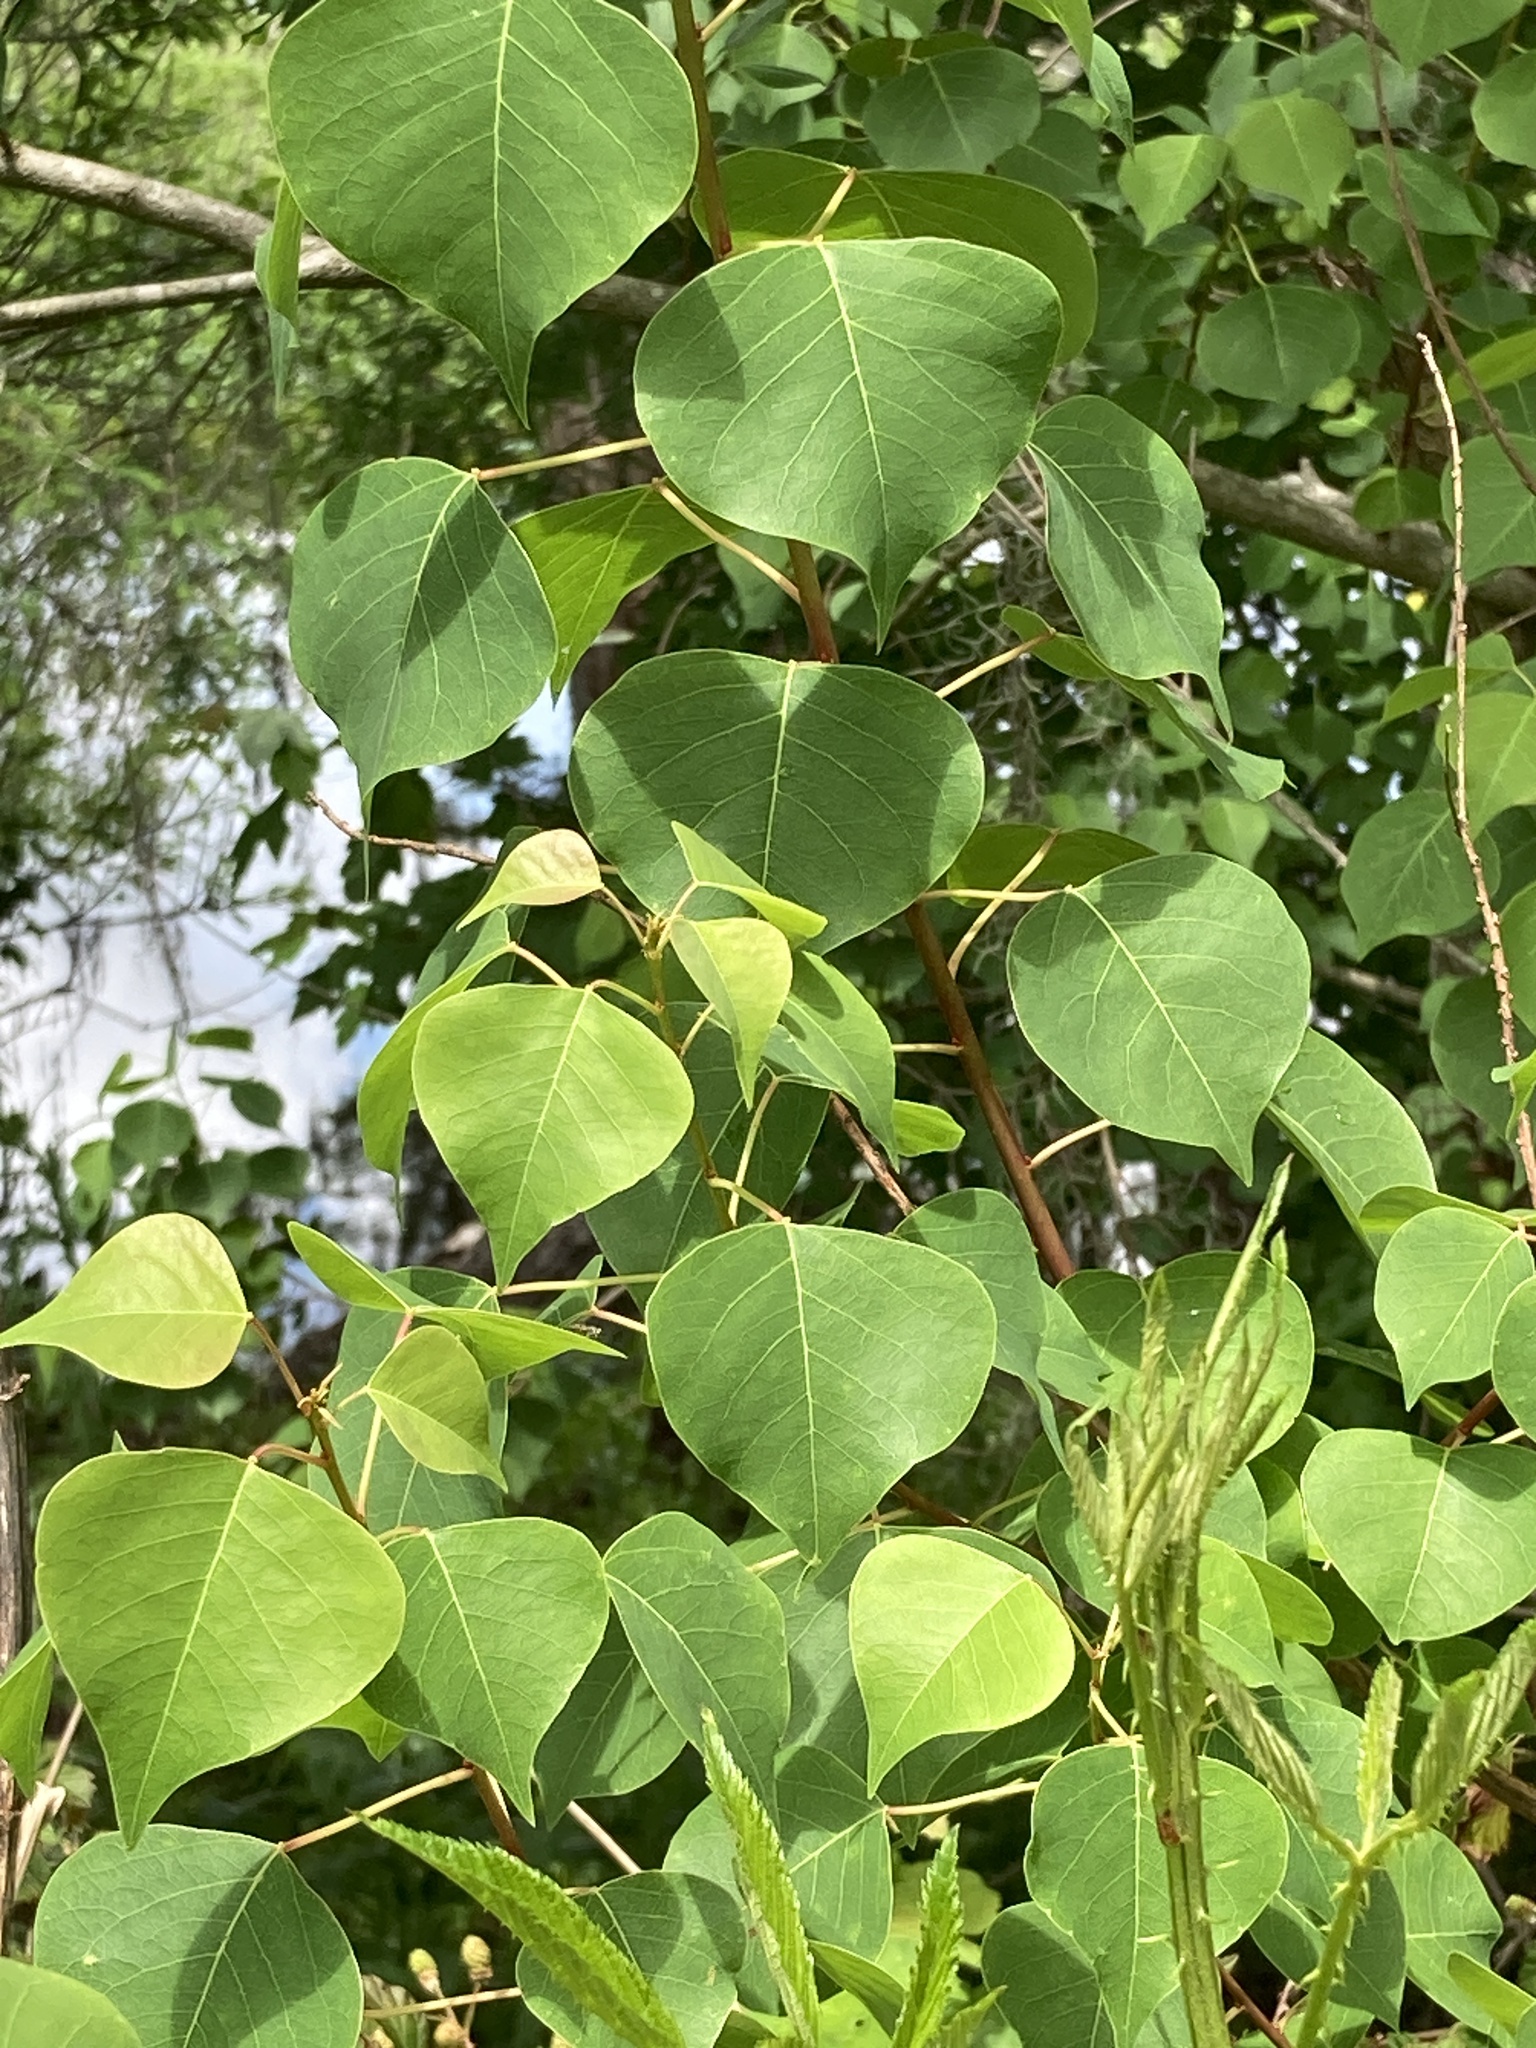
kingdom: Plantae
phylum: Tracheophyta
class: Magnoliopsida
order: Malpighiales
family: Euphorbiaceae
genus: Triadica
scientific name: Triadica sebifera
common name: Chinese tallow
